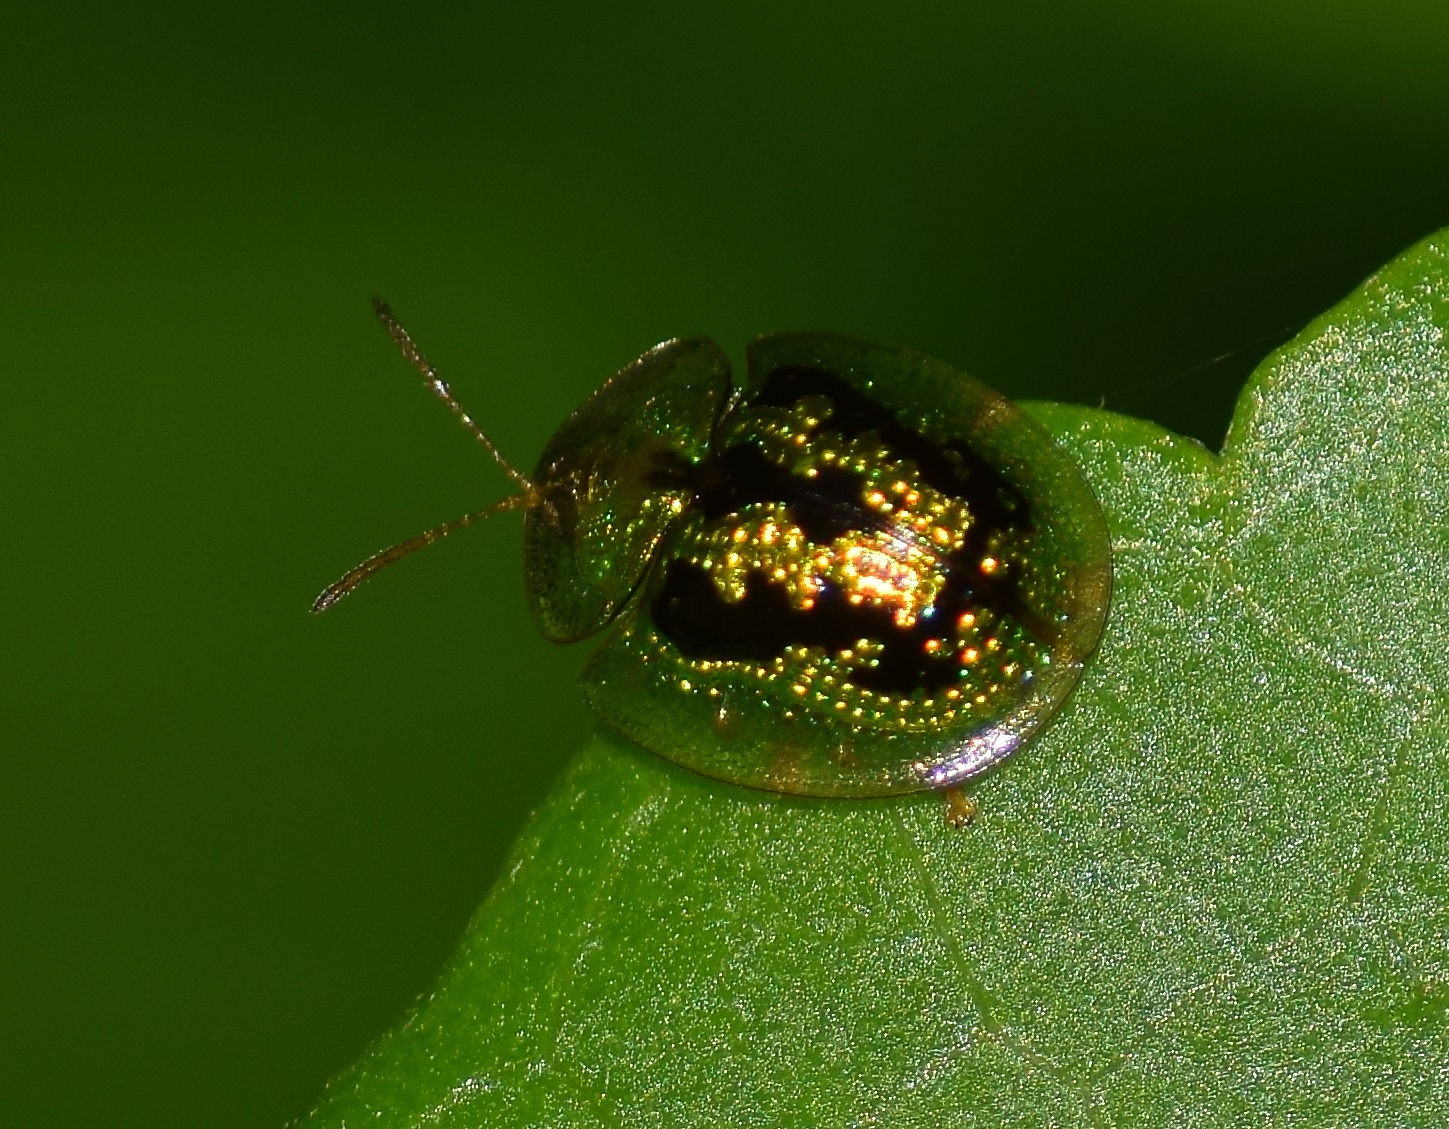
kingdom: Animalia
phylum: Arthropoda
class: Insecta
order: Coleoptera
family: Chrysomelidae
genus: Cassida
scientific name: Cassida circumdata
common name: Tortoise beetle
